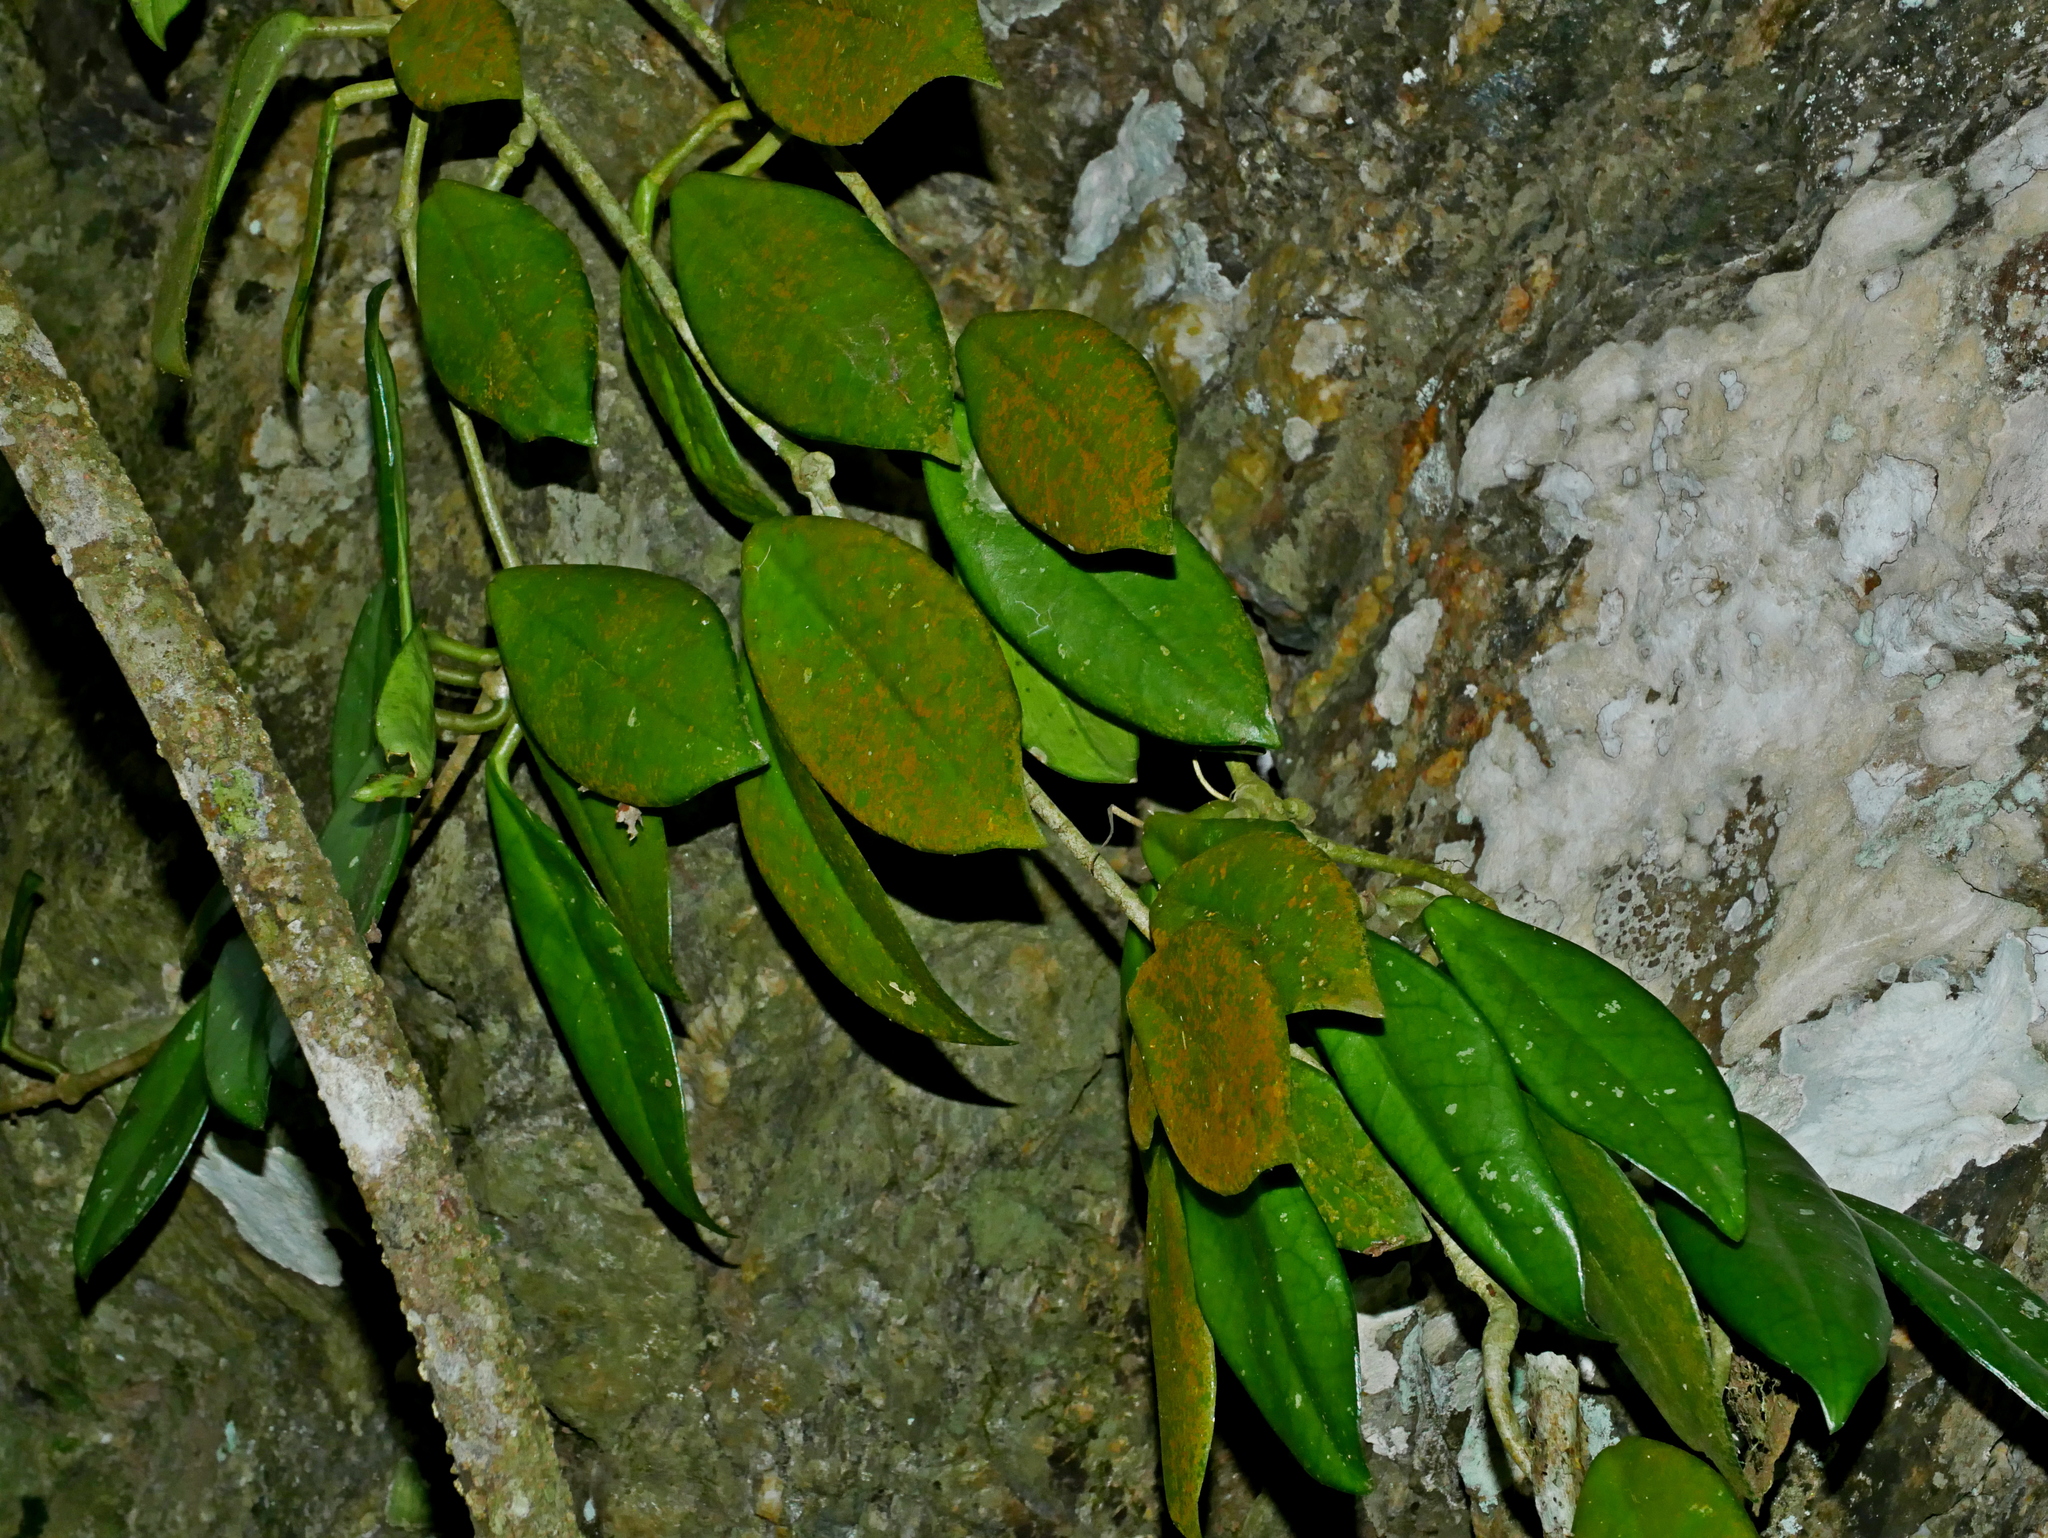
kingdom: Plantae
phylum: Tracheophyta
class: Magnoliopsida
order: Gentianales
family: Apocynaceae
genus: Hoya
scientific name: Hoya carnosa
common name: Honeyplant
